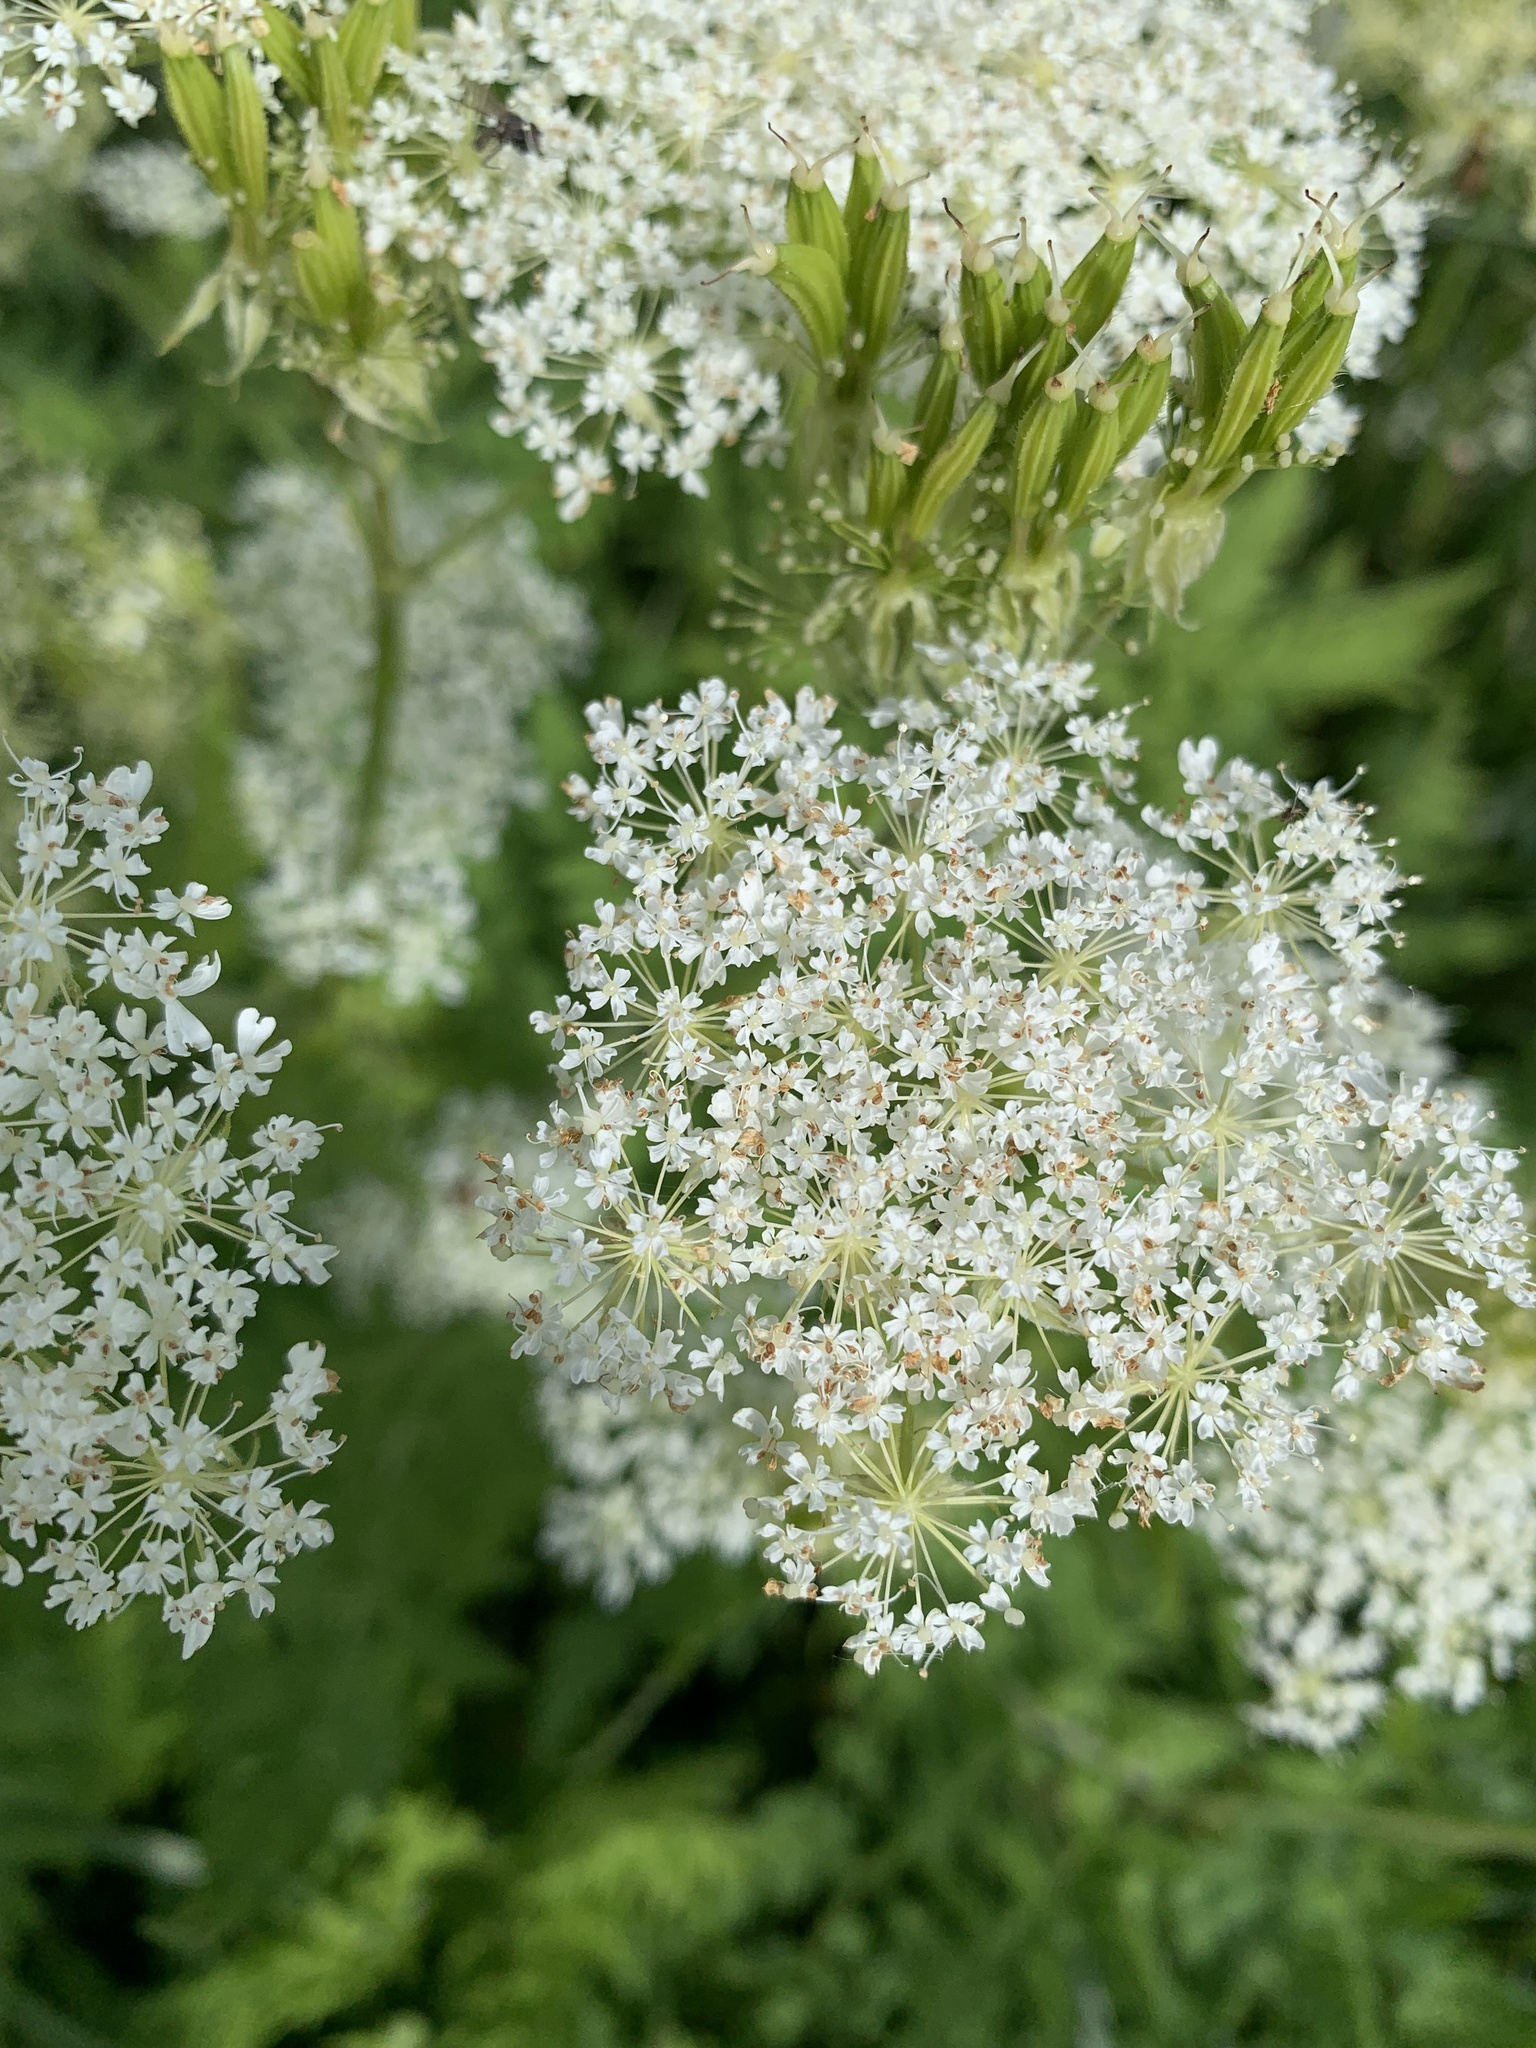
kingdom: Plantae
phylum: Tracheophyta
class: Magnoliopsida
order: Apiales
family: Apiaceae
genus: Myrrhis
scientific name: Myrrhis odorata
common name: Sweet cicely
